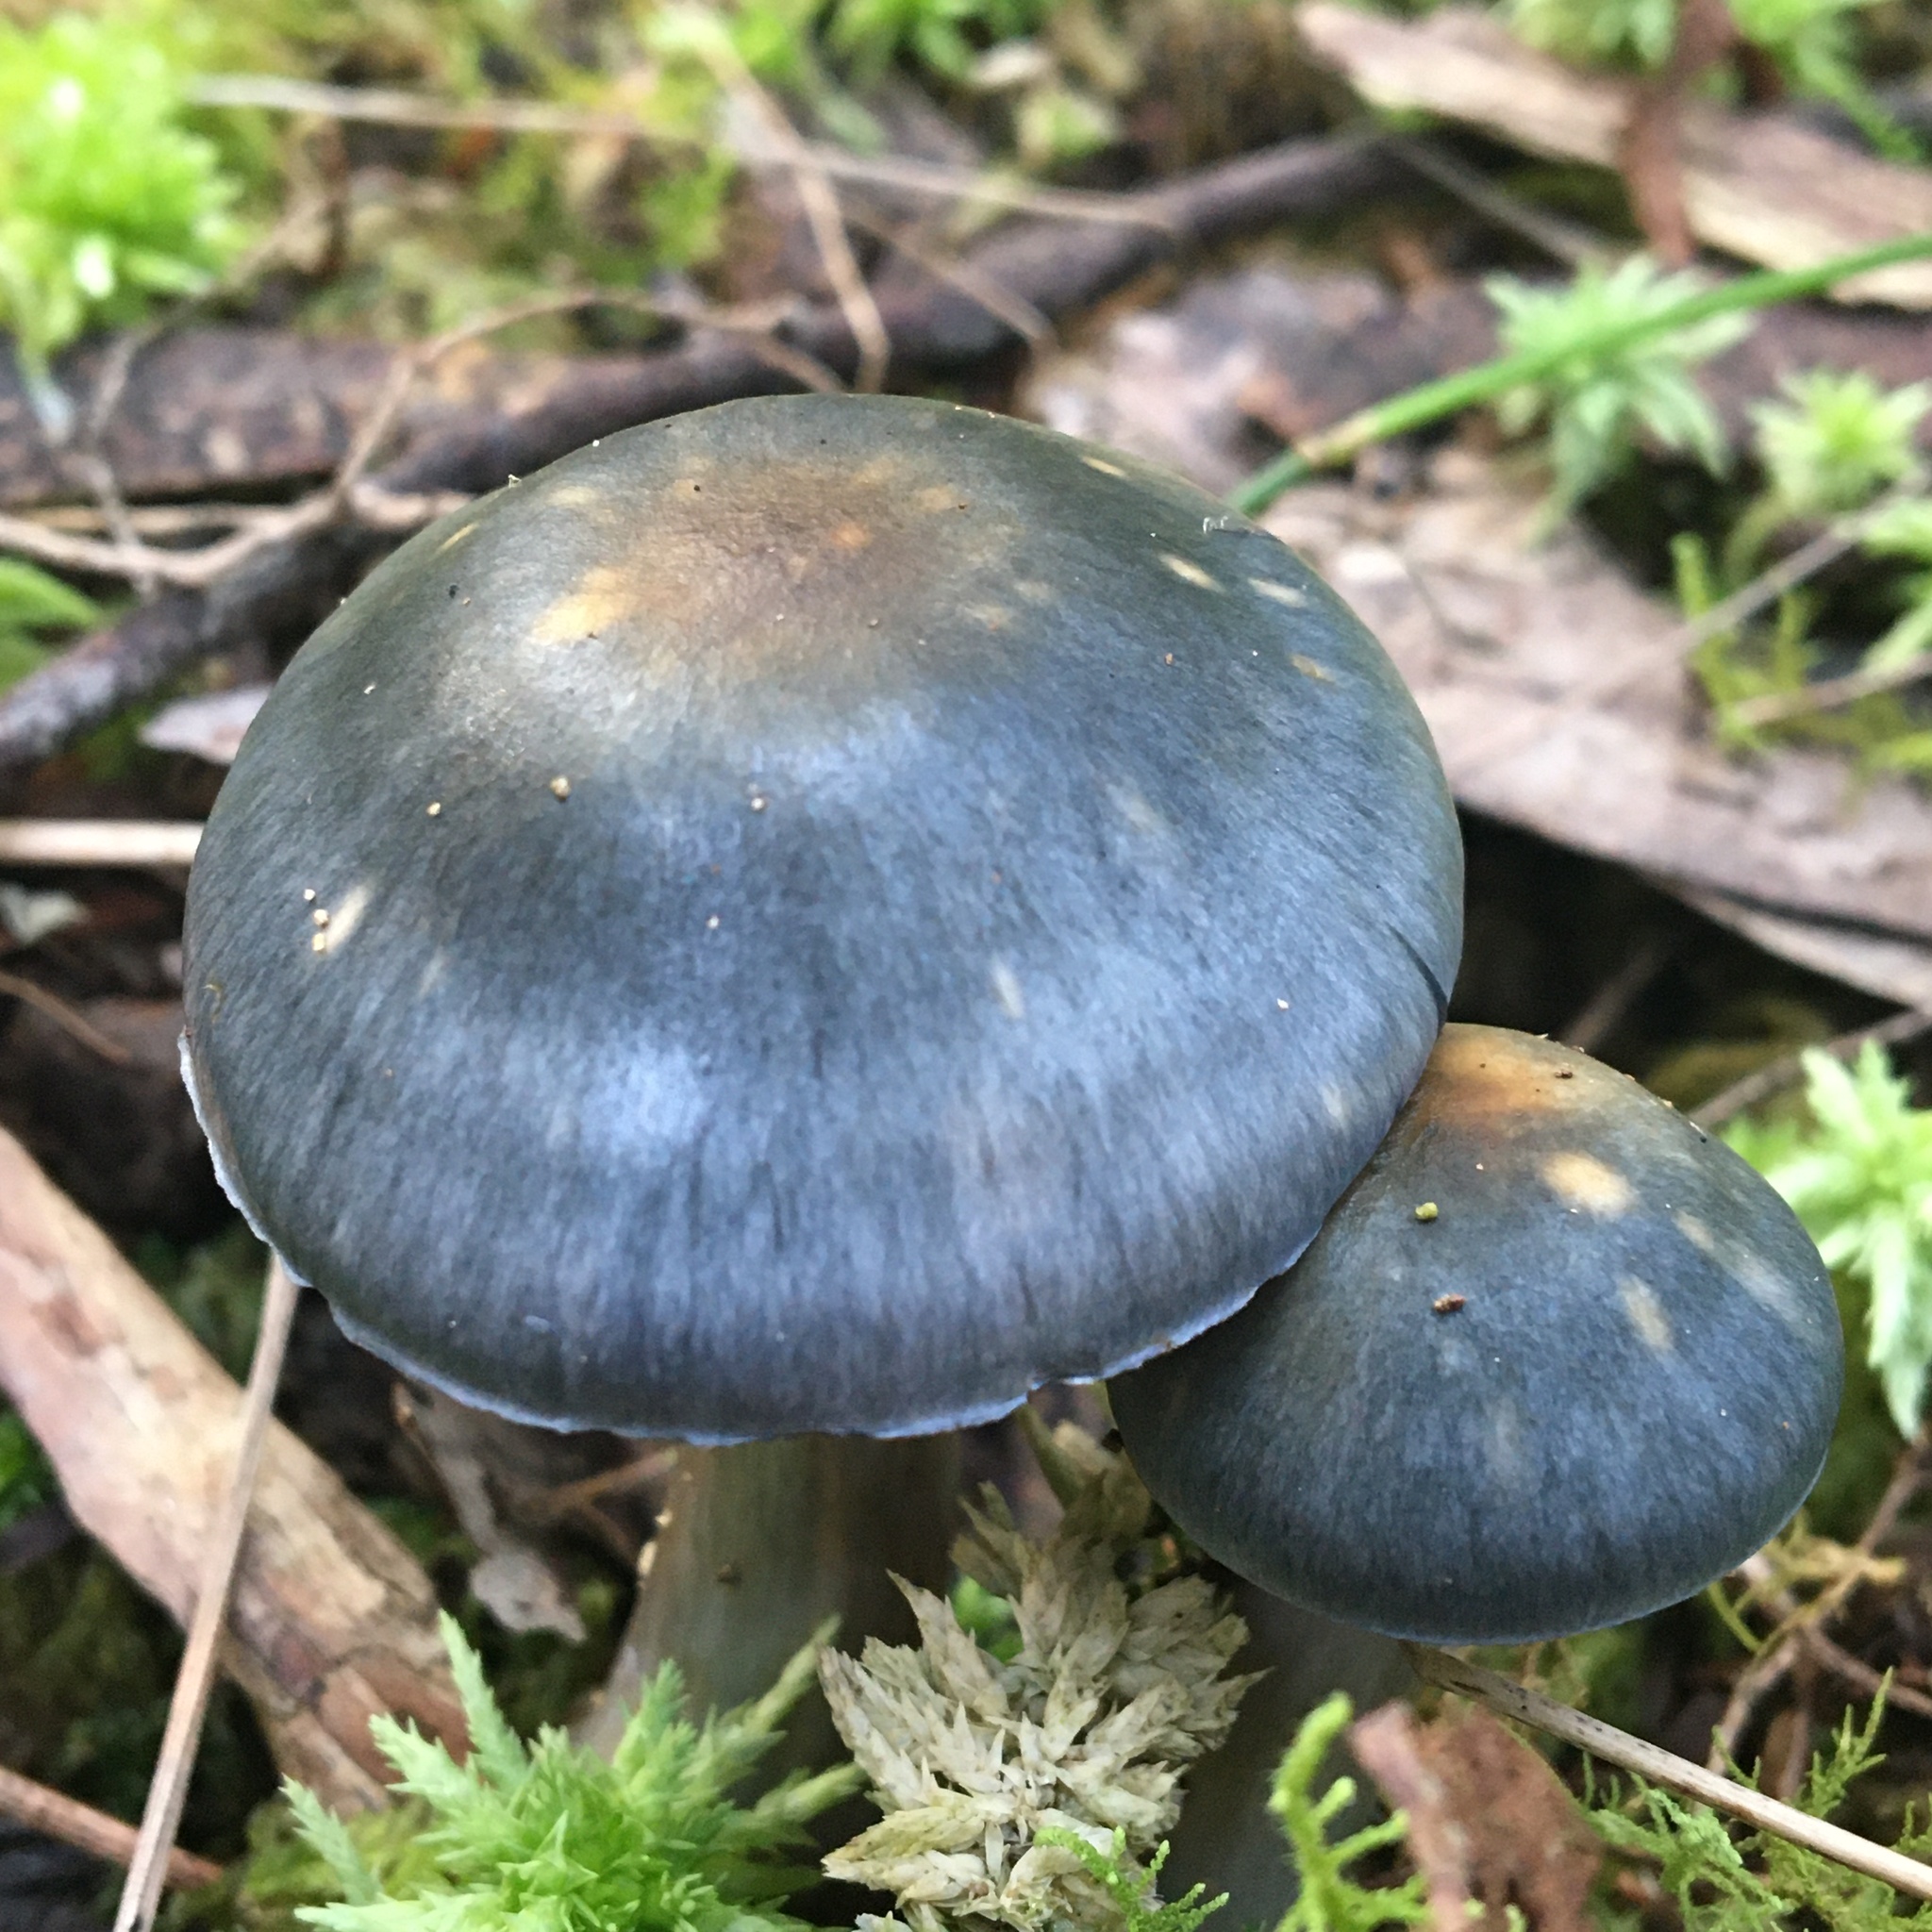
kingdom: Fungi
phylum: Basidiomycota
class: Agaricomycetes
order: Agaricales
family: Cortinariaceae
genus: Cortinarius
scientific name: Cortinarius rotundisporus
